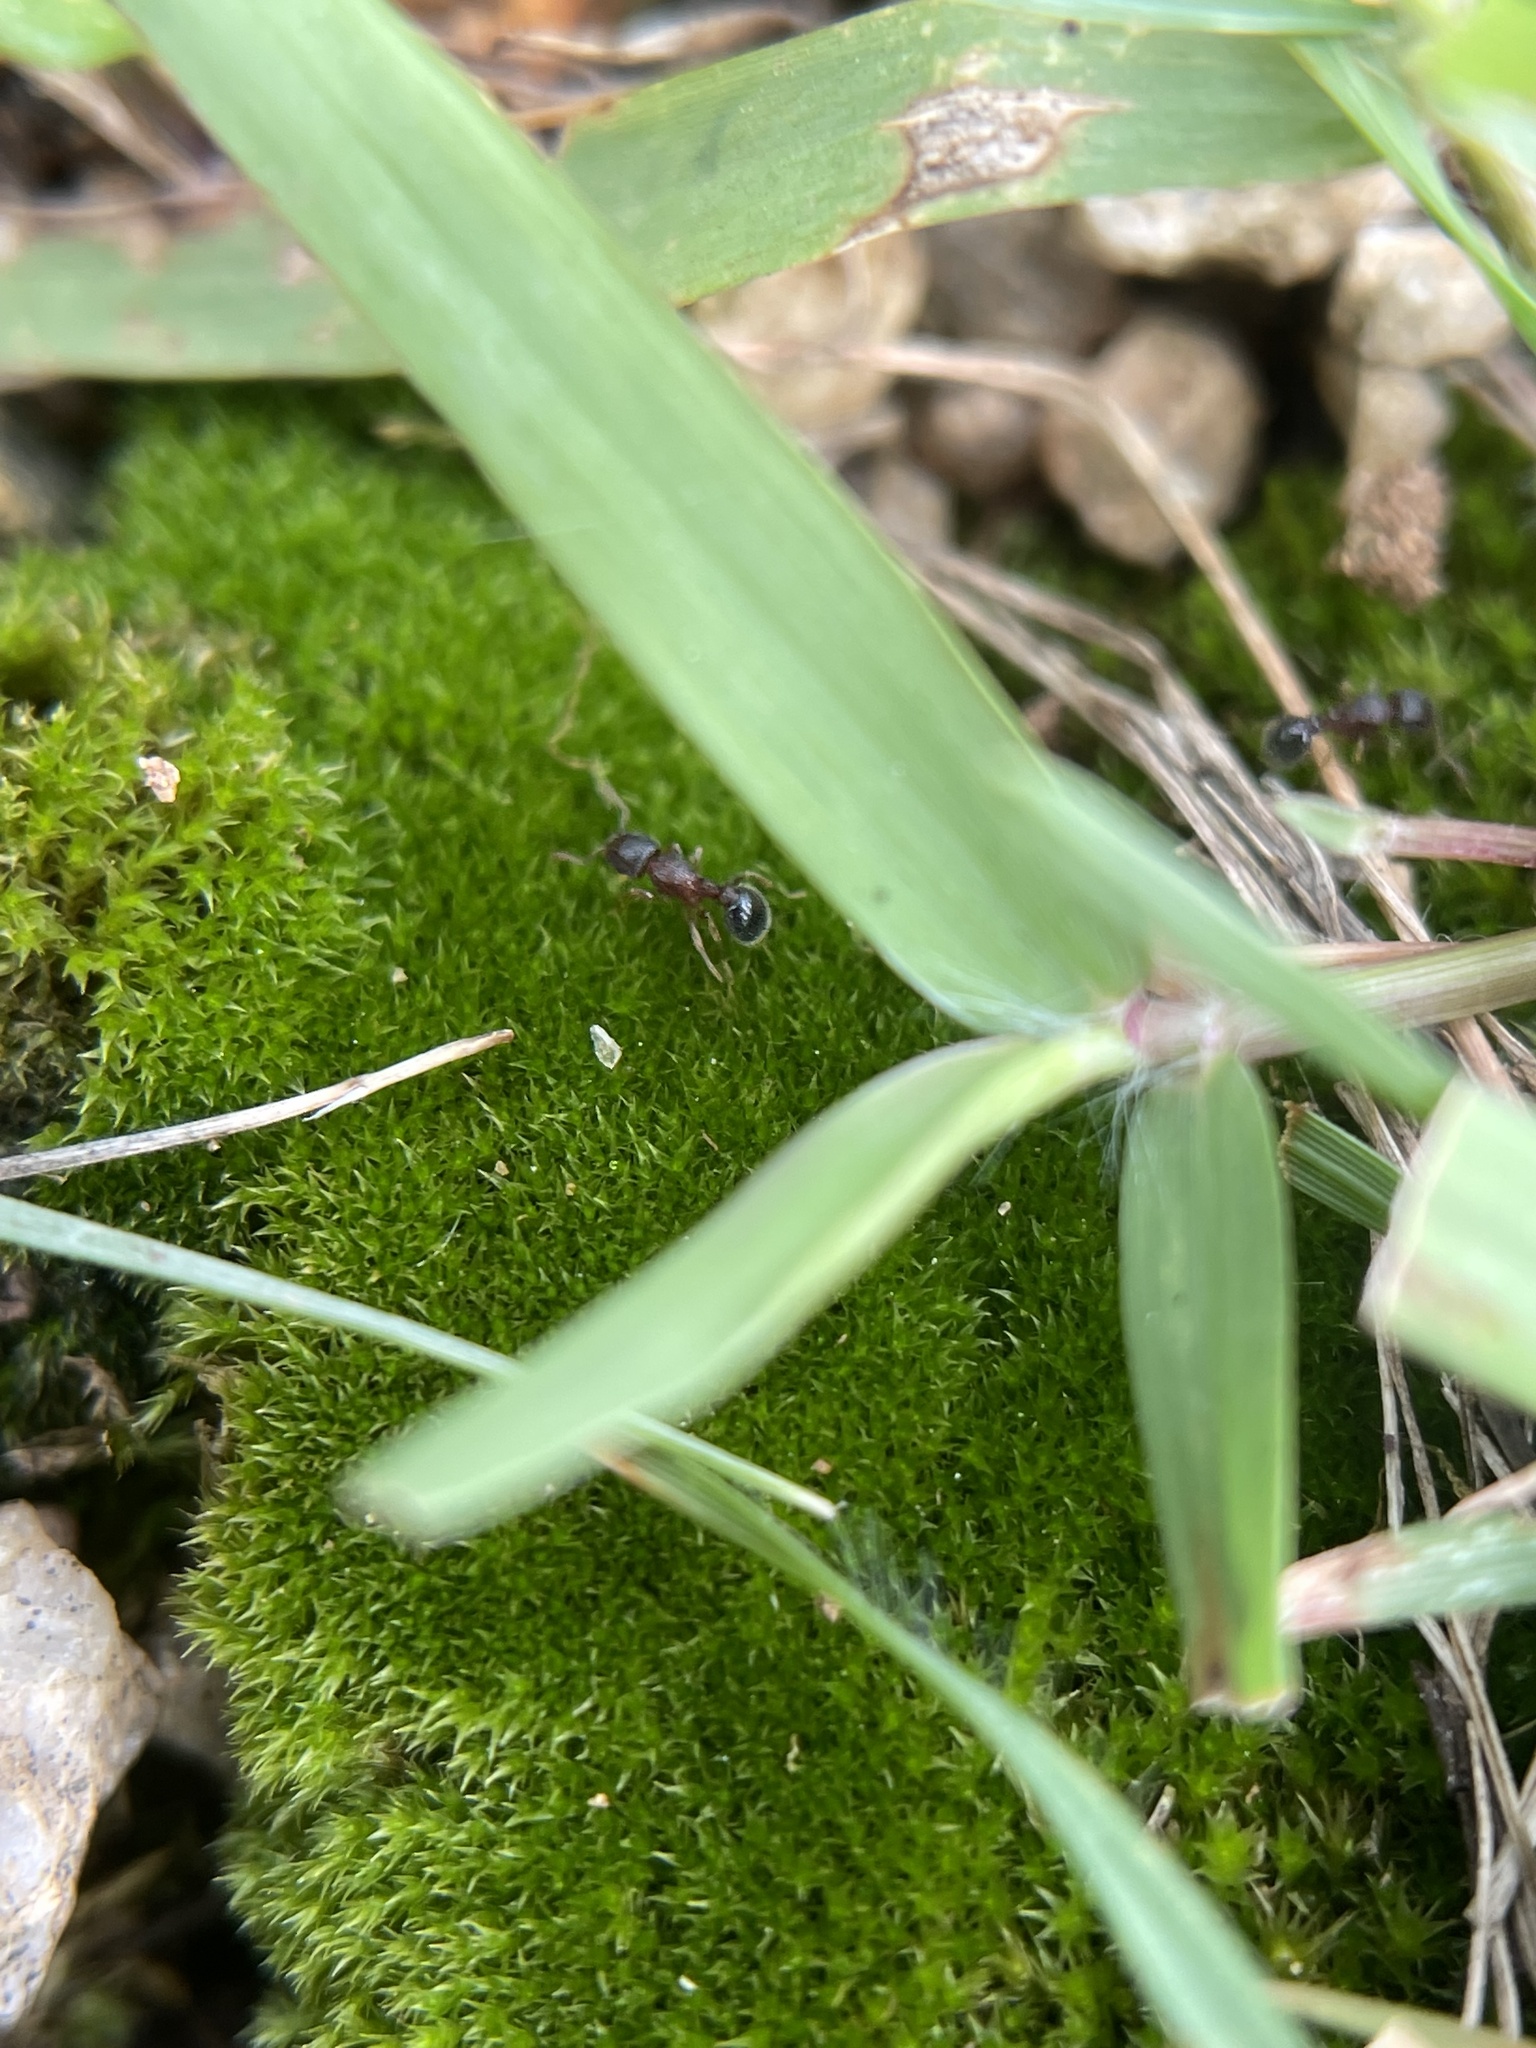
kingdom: Animalia
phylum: Arthropoda
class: Insecta
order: Hymenoptera
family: Formicidae
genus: Tetramorium
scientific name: Tetramorium smithi
